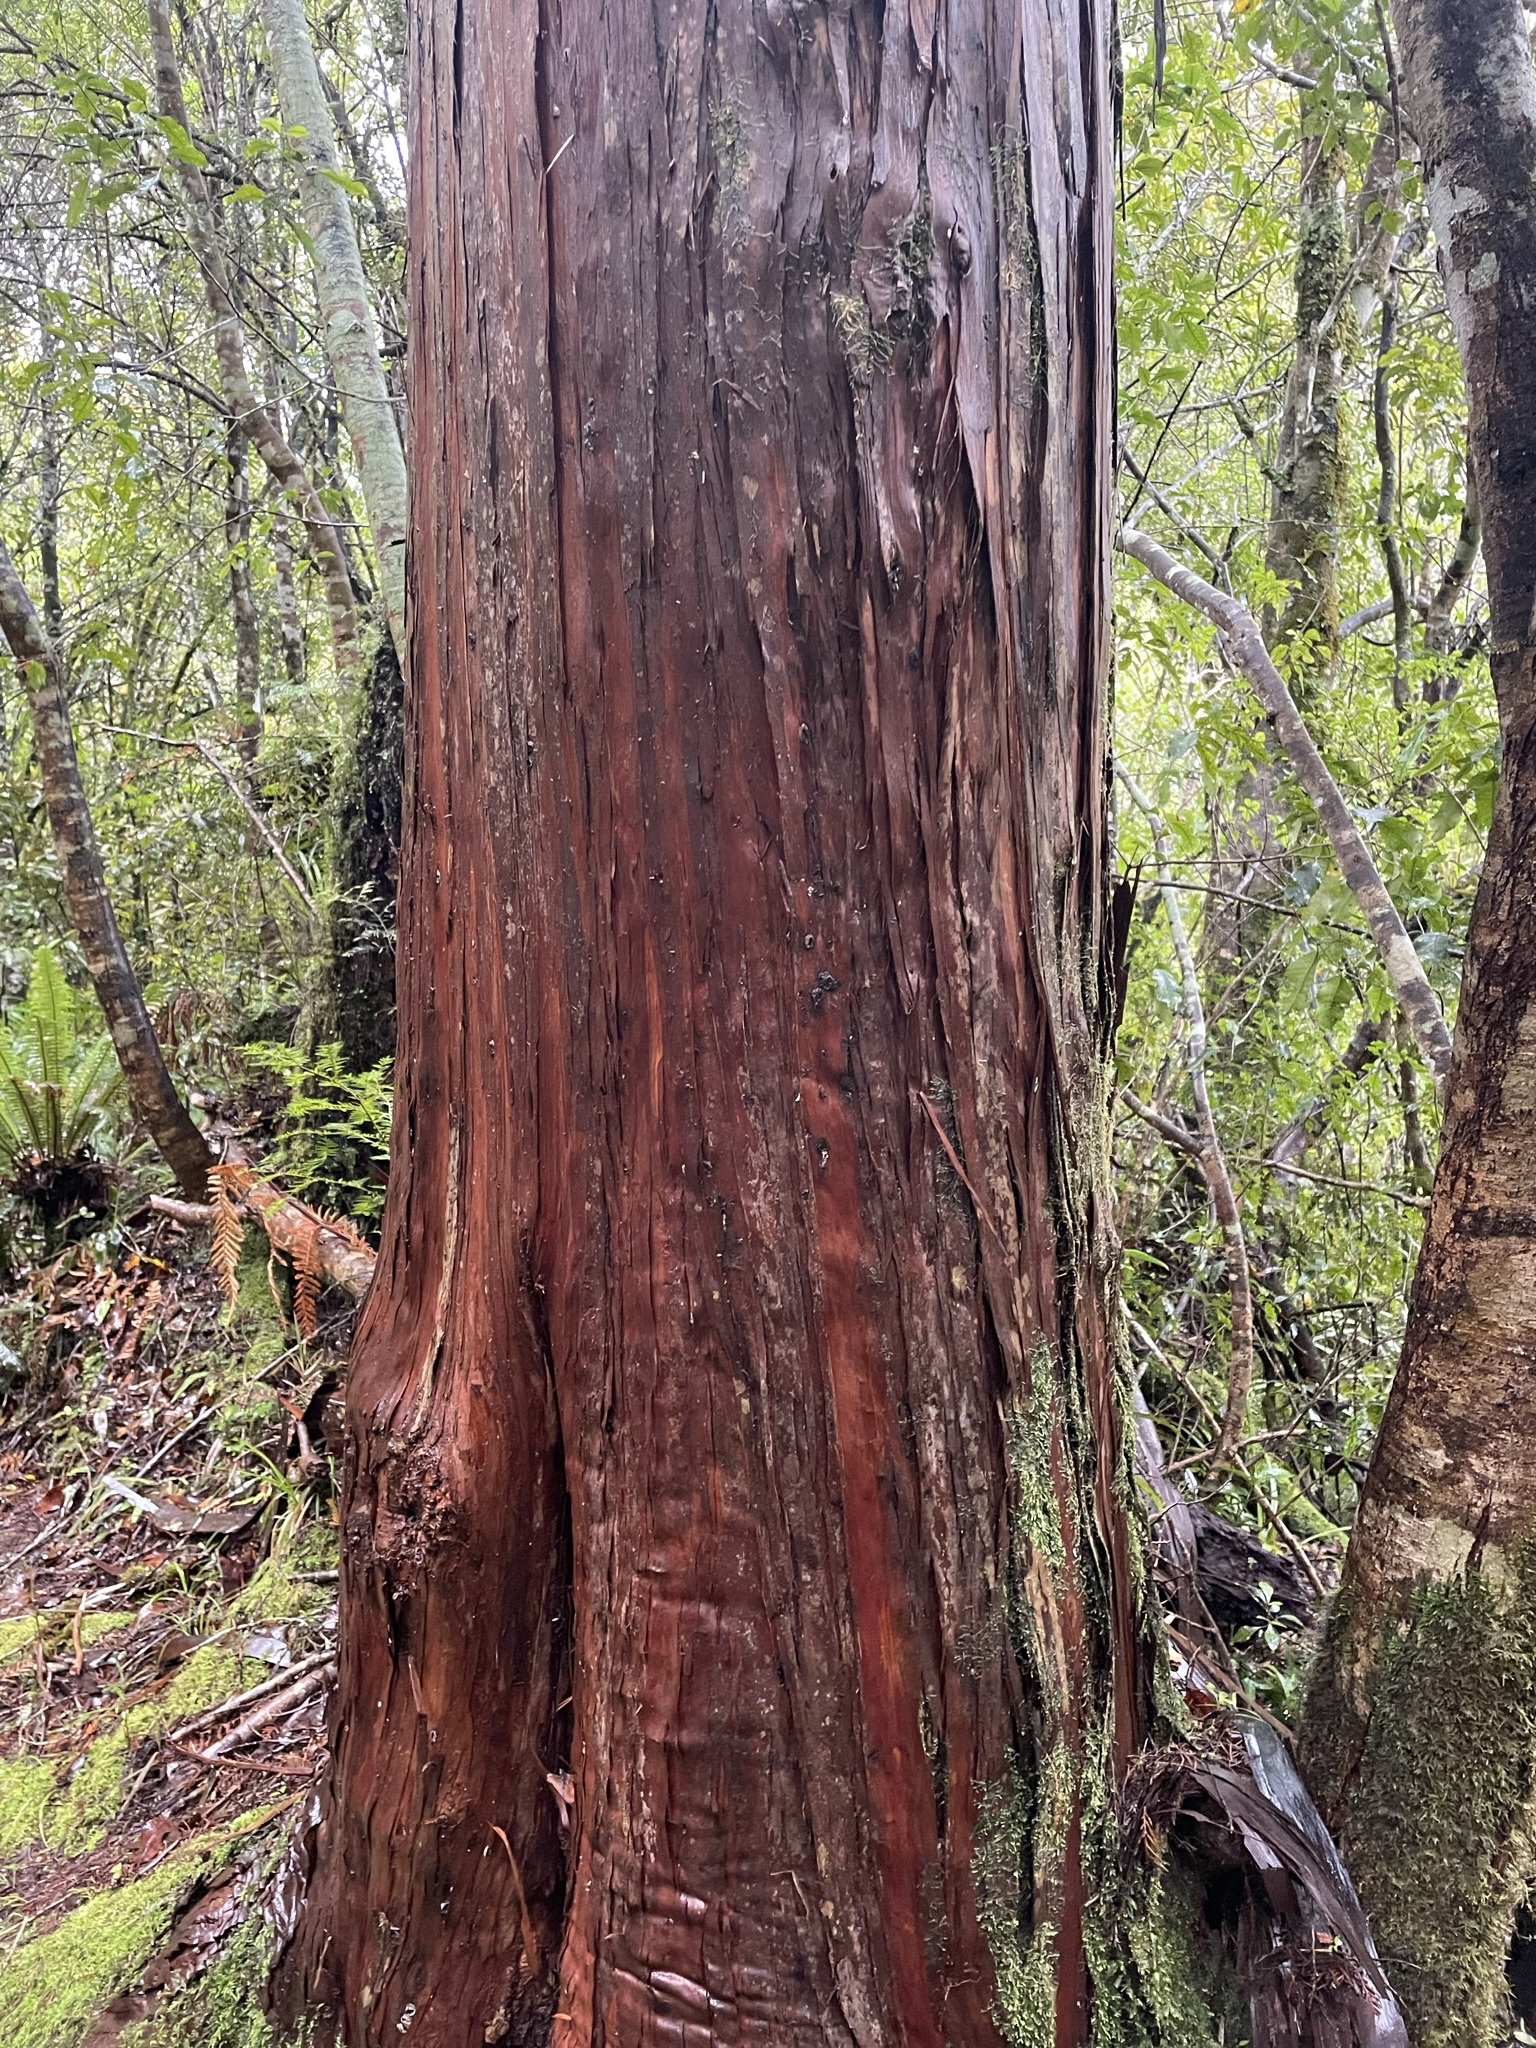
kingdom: Plantae
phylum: Tracheophyta
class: Pinopsida
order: Pinales
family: Cupressaceae
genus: Libocedrus
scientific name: Libocedrus bidwillii
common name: Cedar
